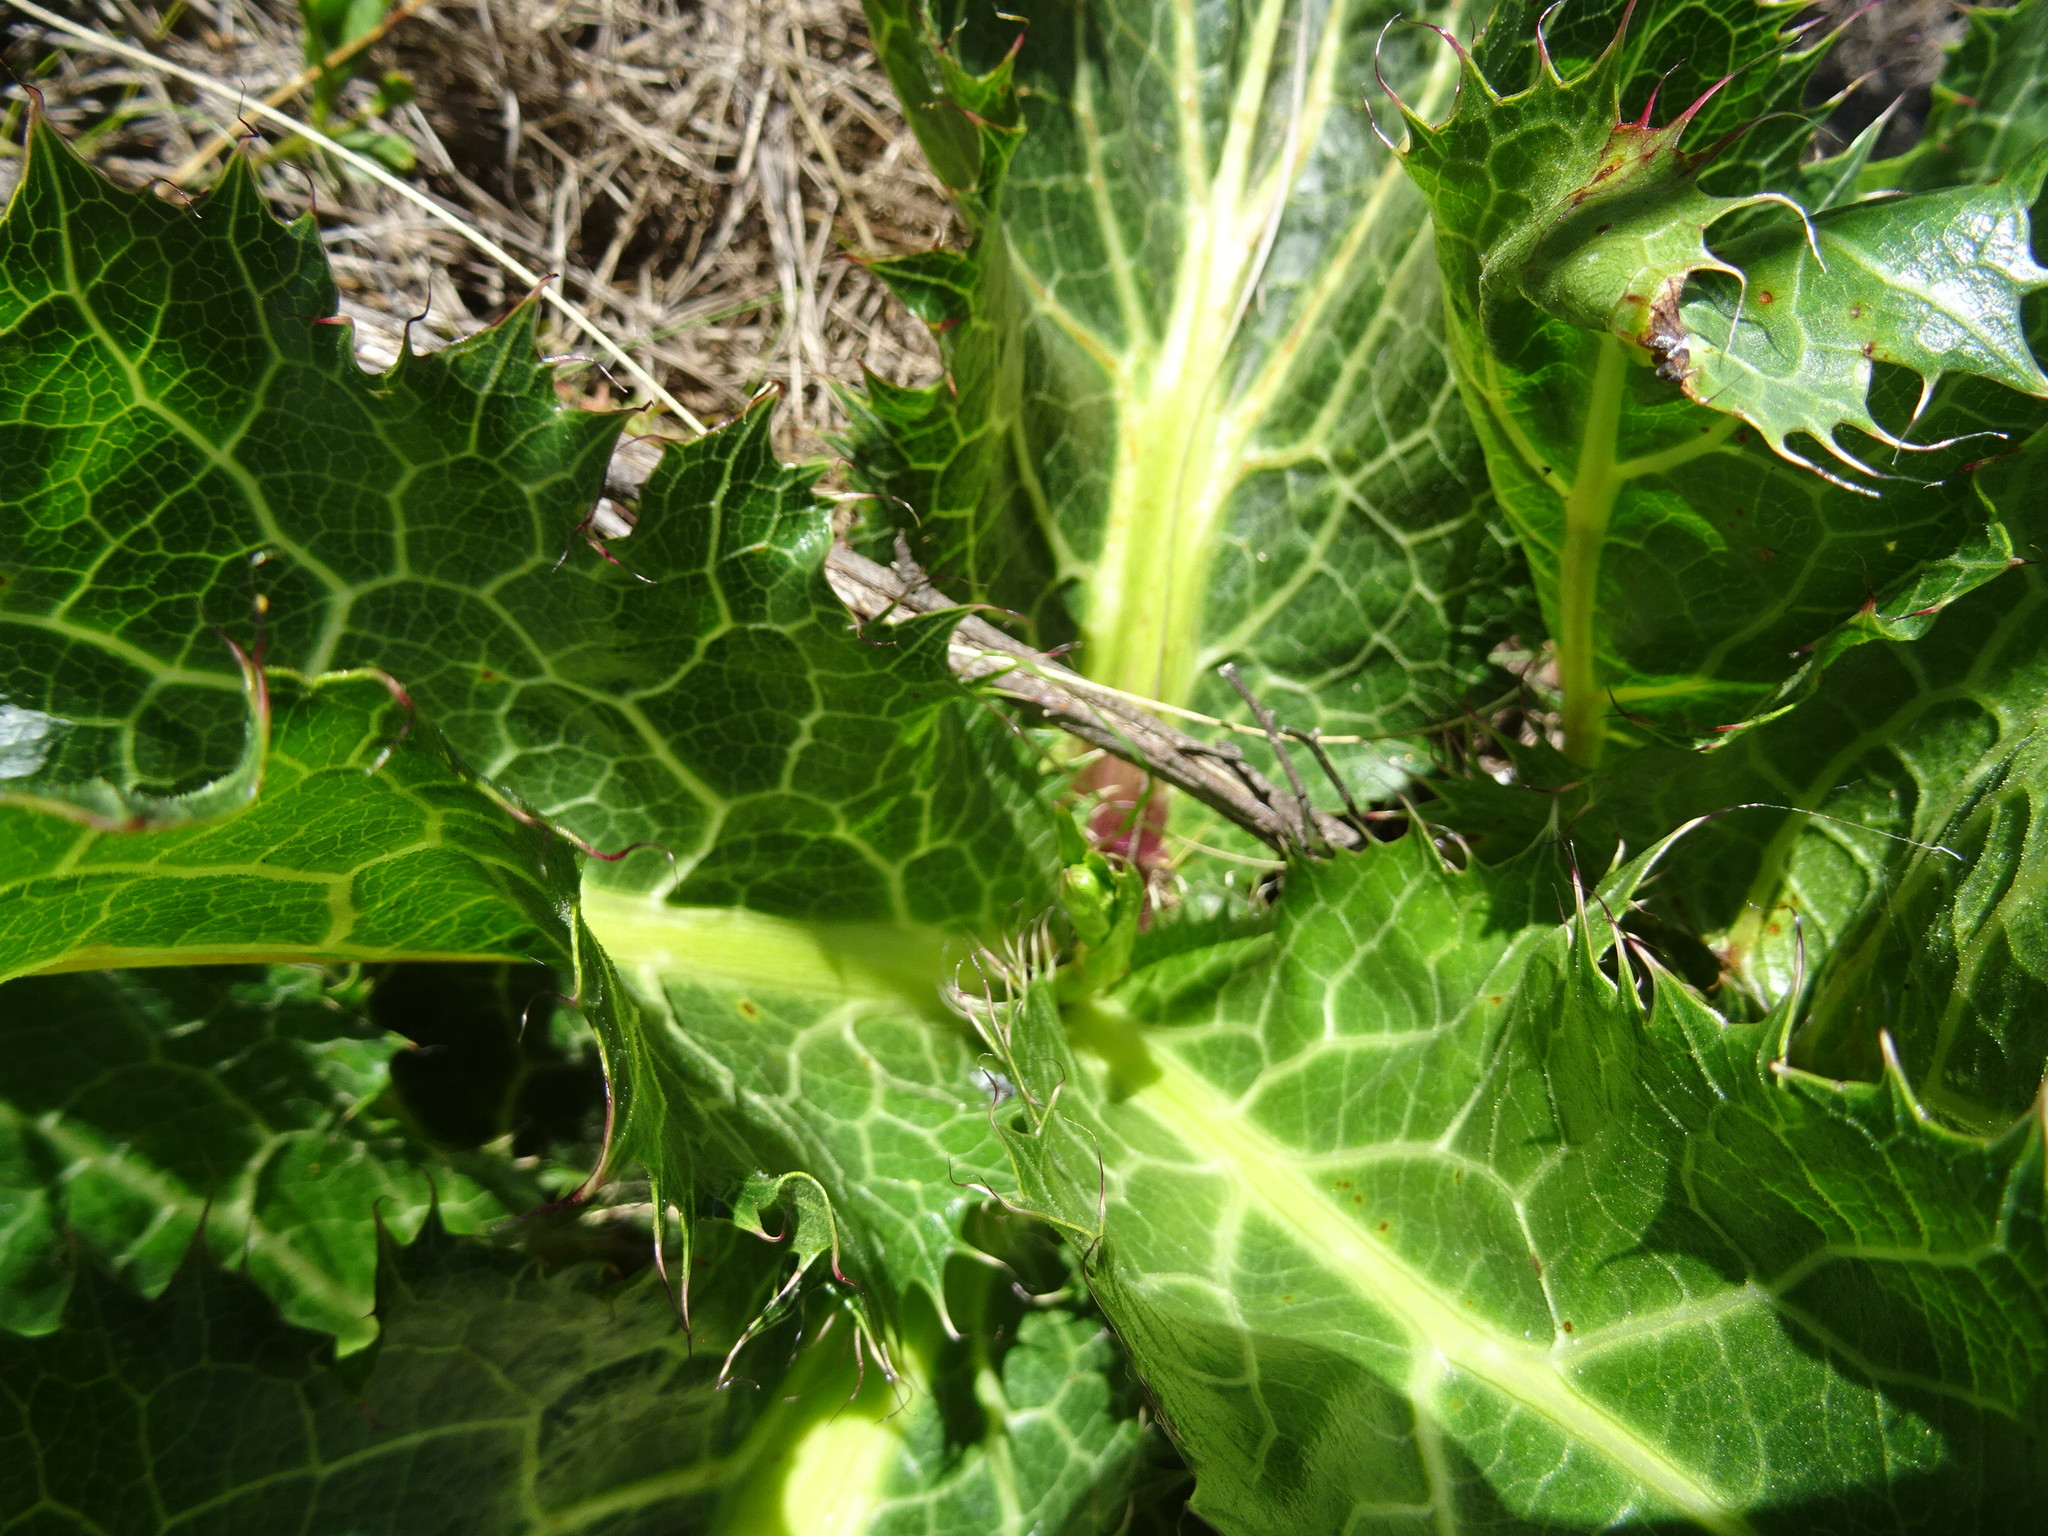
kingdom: Plantae
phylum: Tracheophyta
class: Magnoliopsida
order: Apiales
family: Apiaceae
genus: Lichtensteinia
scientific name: Lichtensteinia lacera
